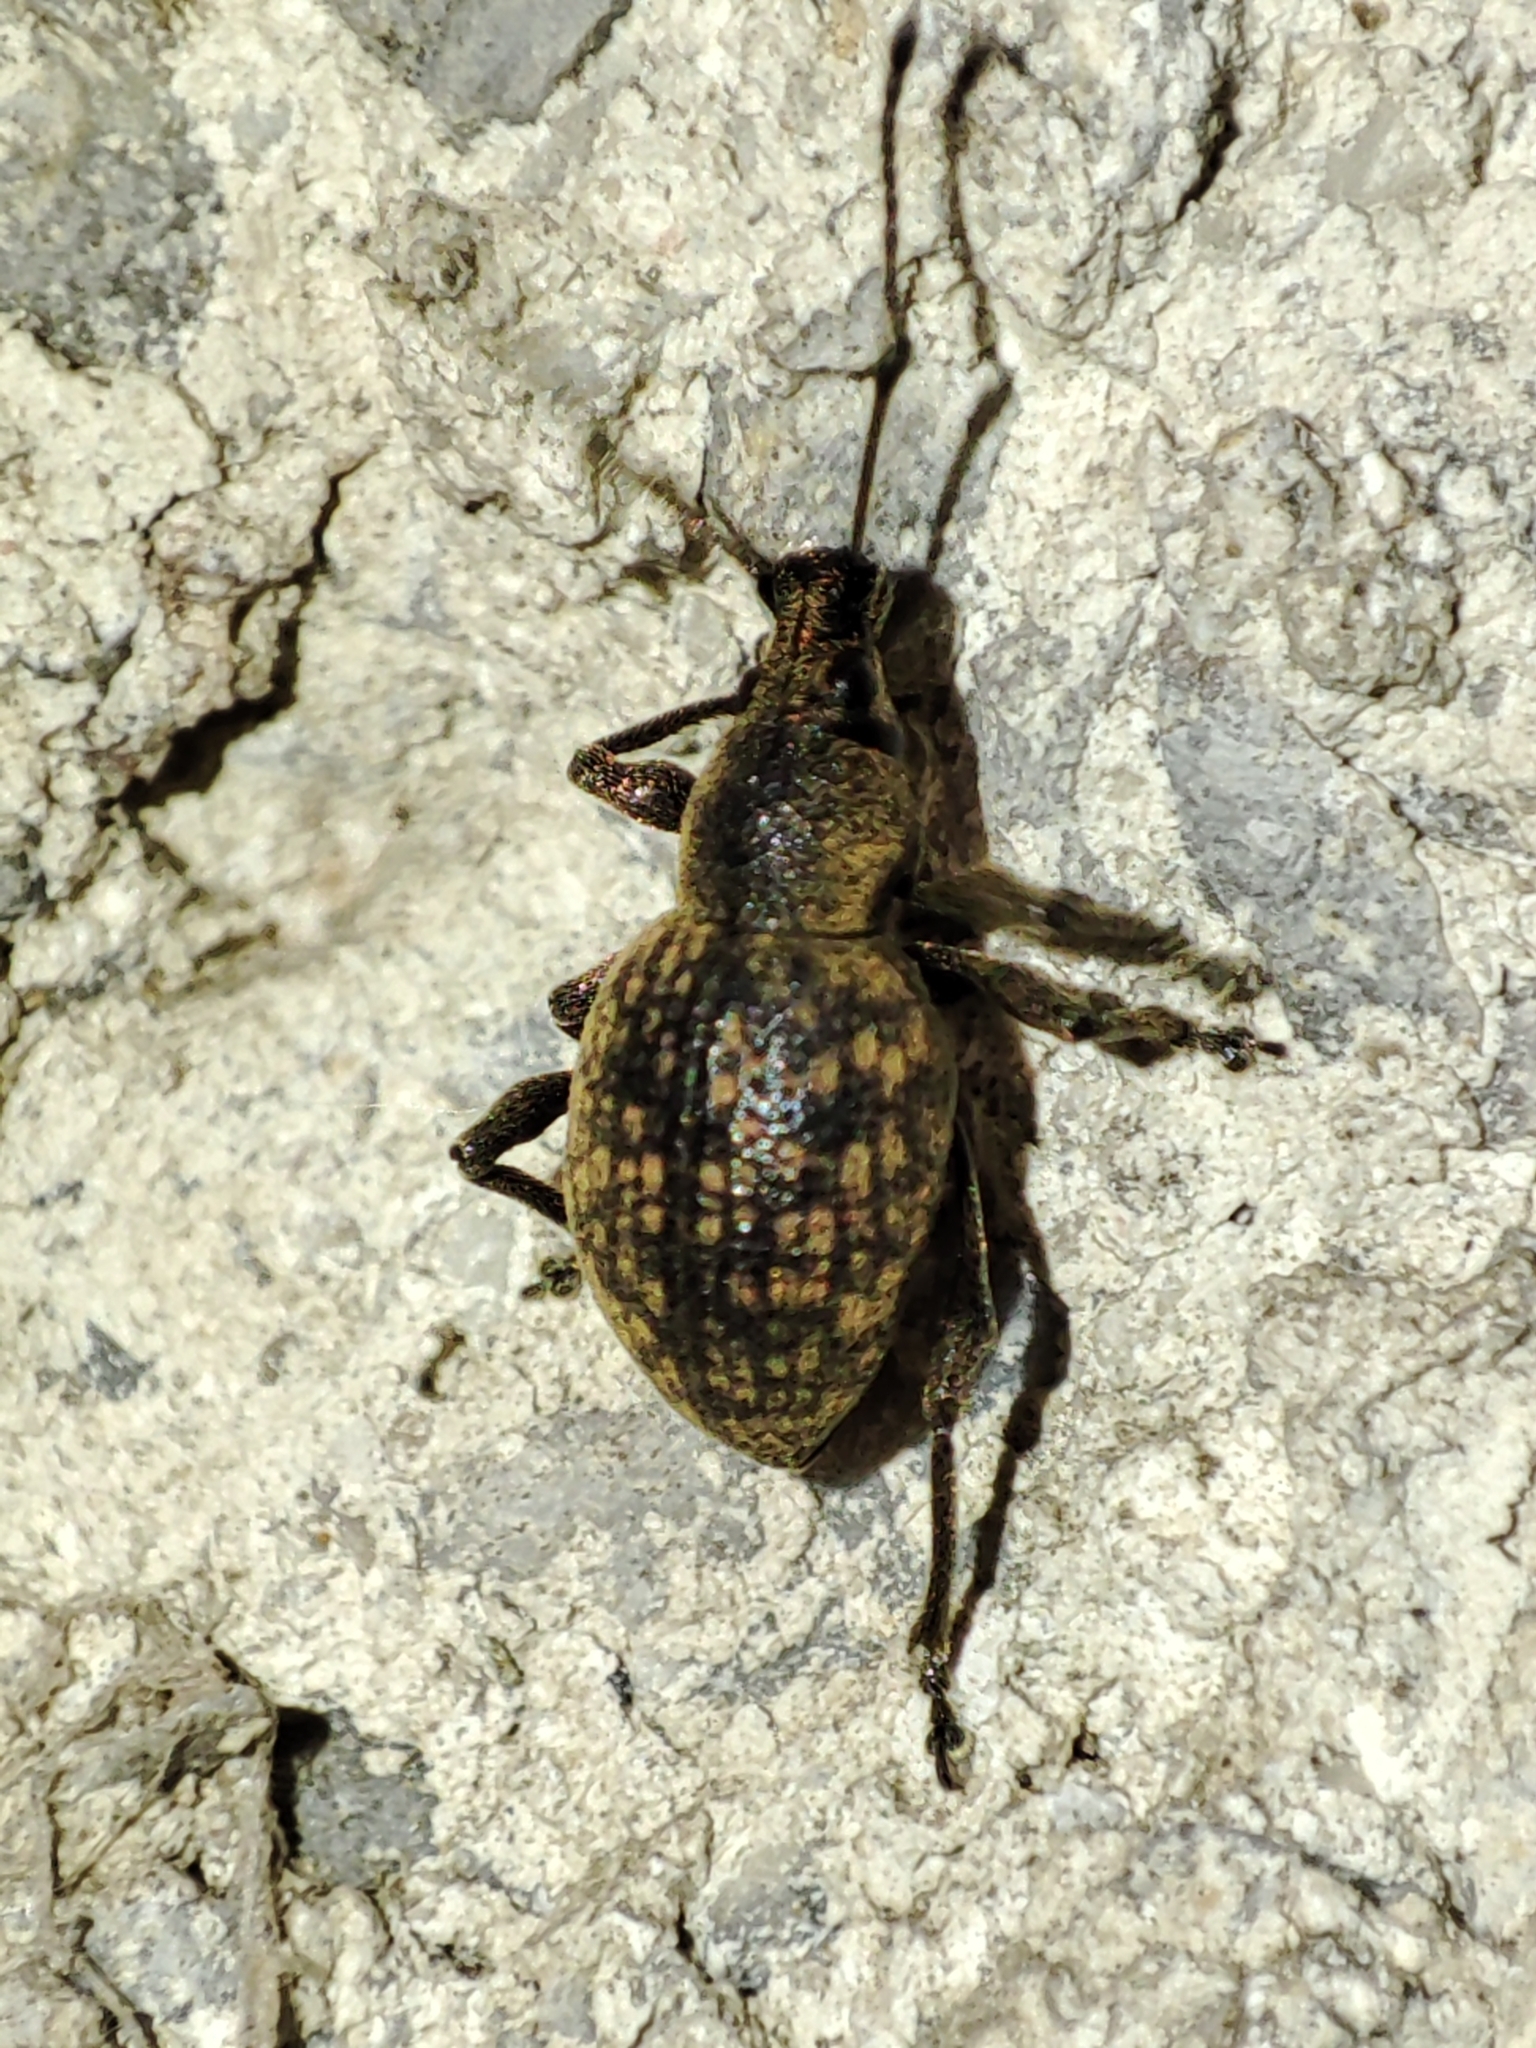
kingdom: Animalia
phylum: Arthropoda
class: Insecta
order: Coleoptera
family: Curculionidae
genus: Otiorhynchus
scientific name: Otiorhynchus multipunctatus
